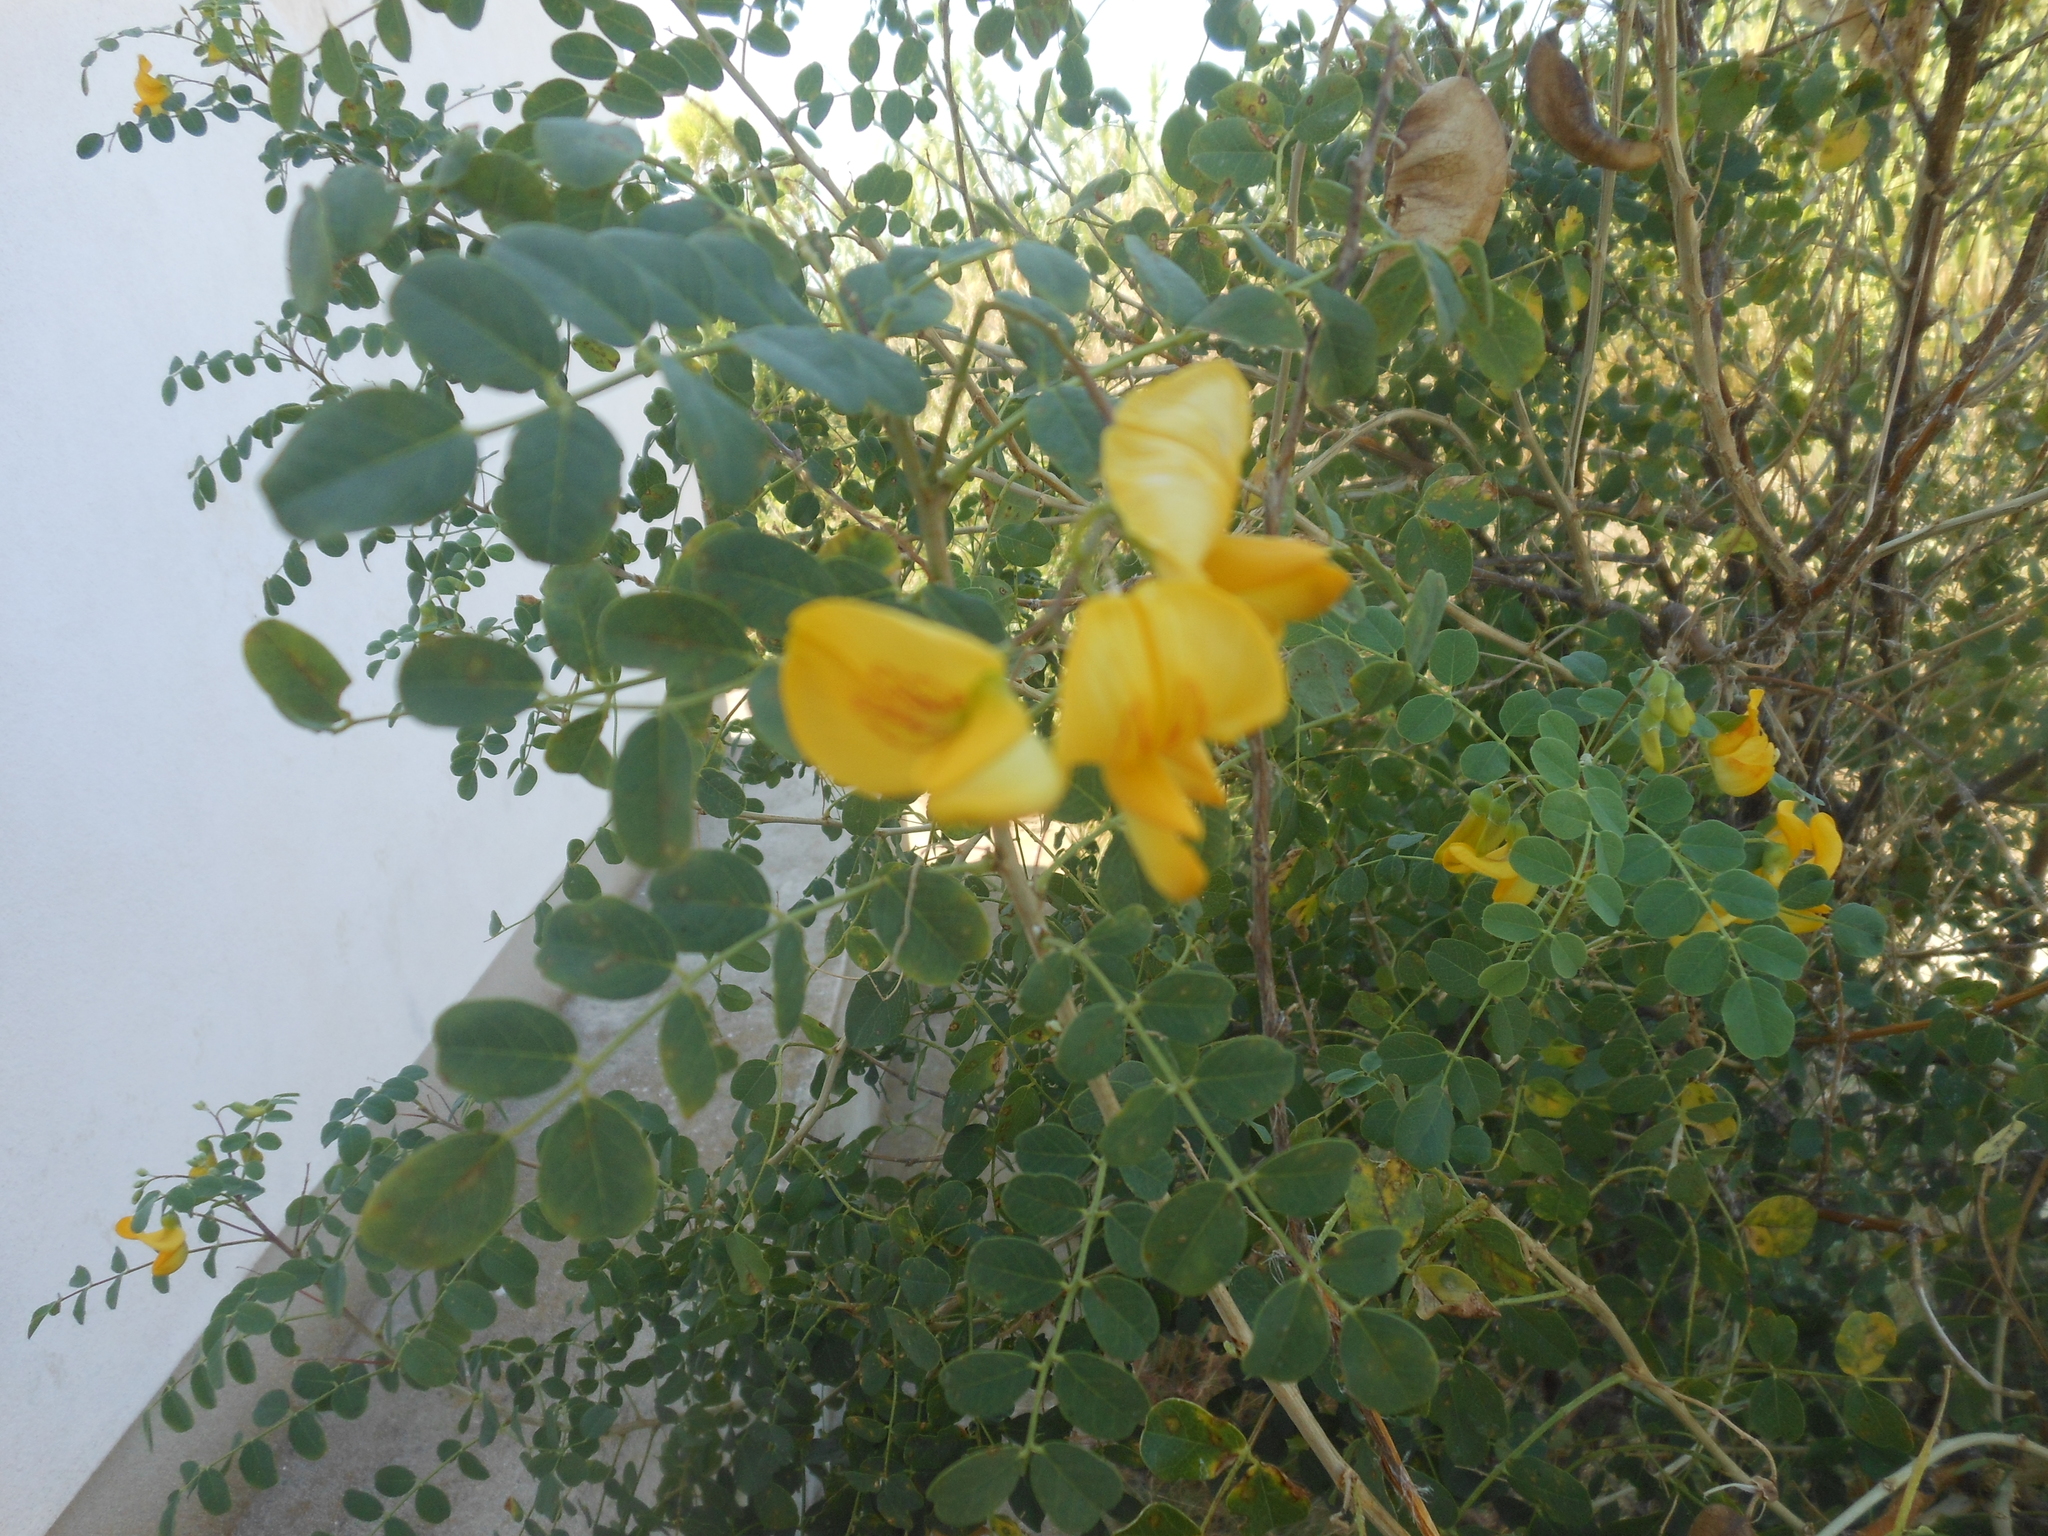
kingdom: Plantae
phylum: Tracheophyta
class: Magnoliopsida
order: Fabales
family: Fabaceae
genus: Colutea
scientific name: Colutea arborescens
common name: Bladder-senna
